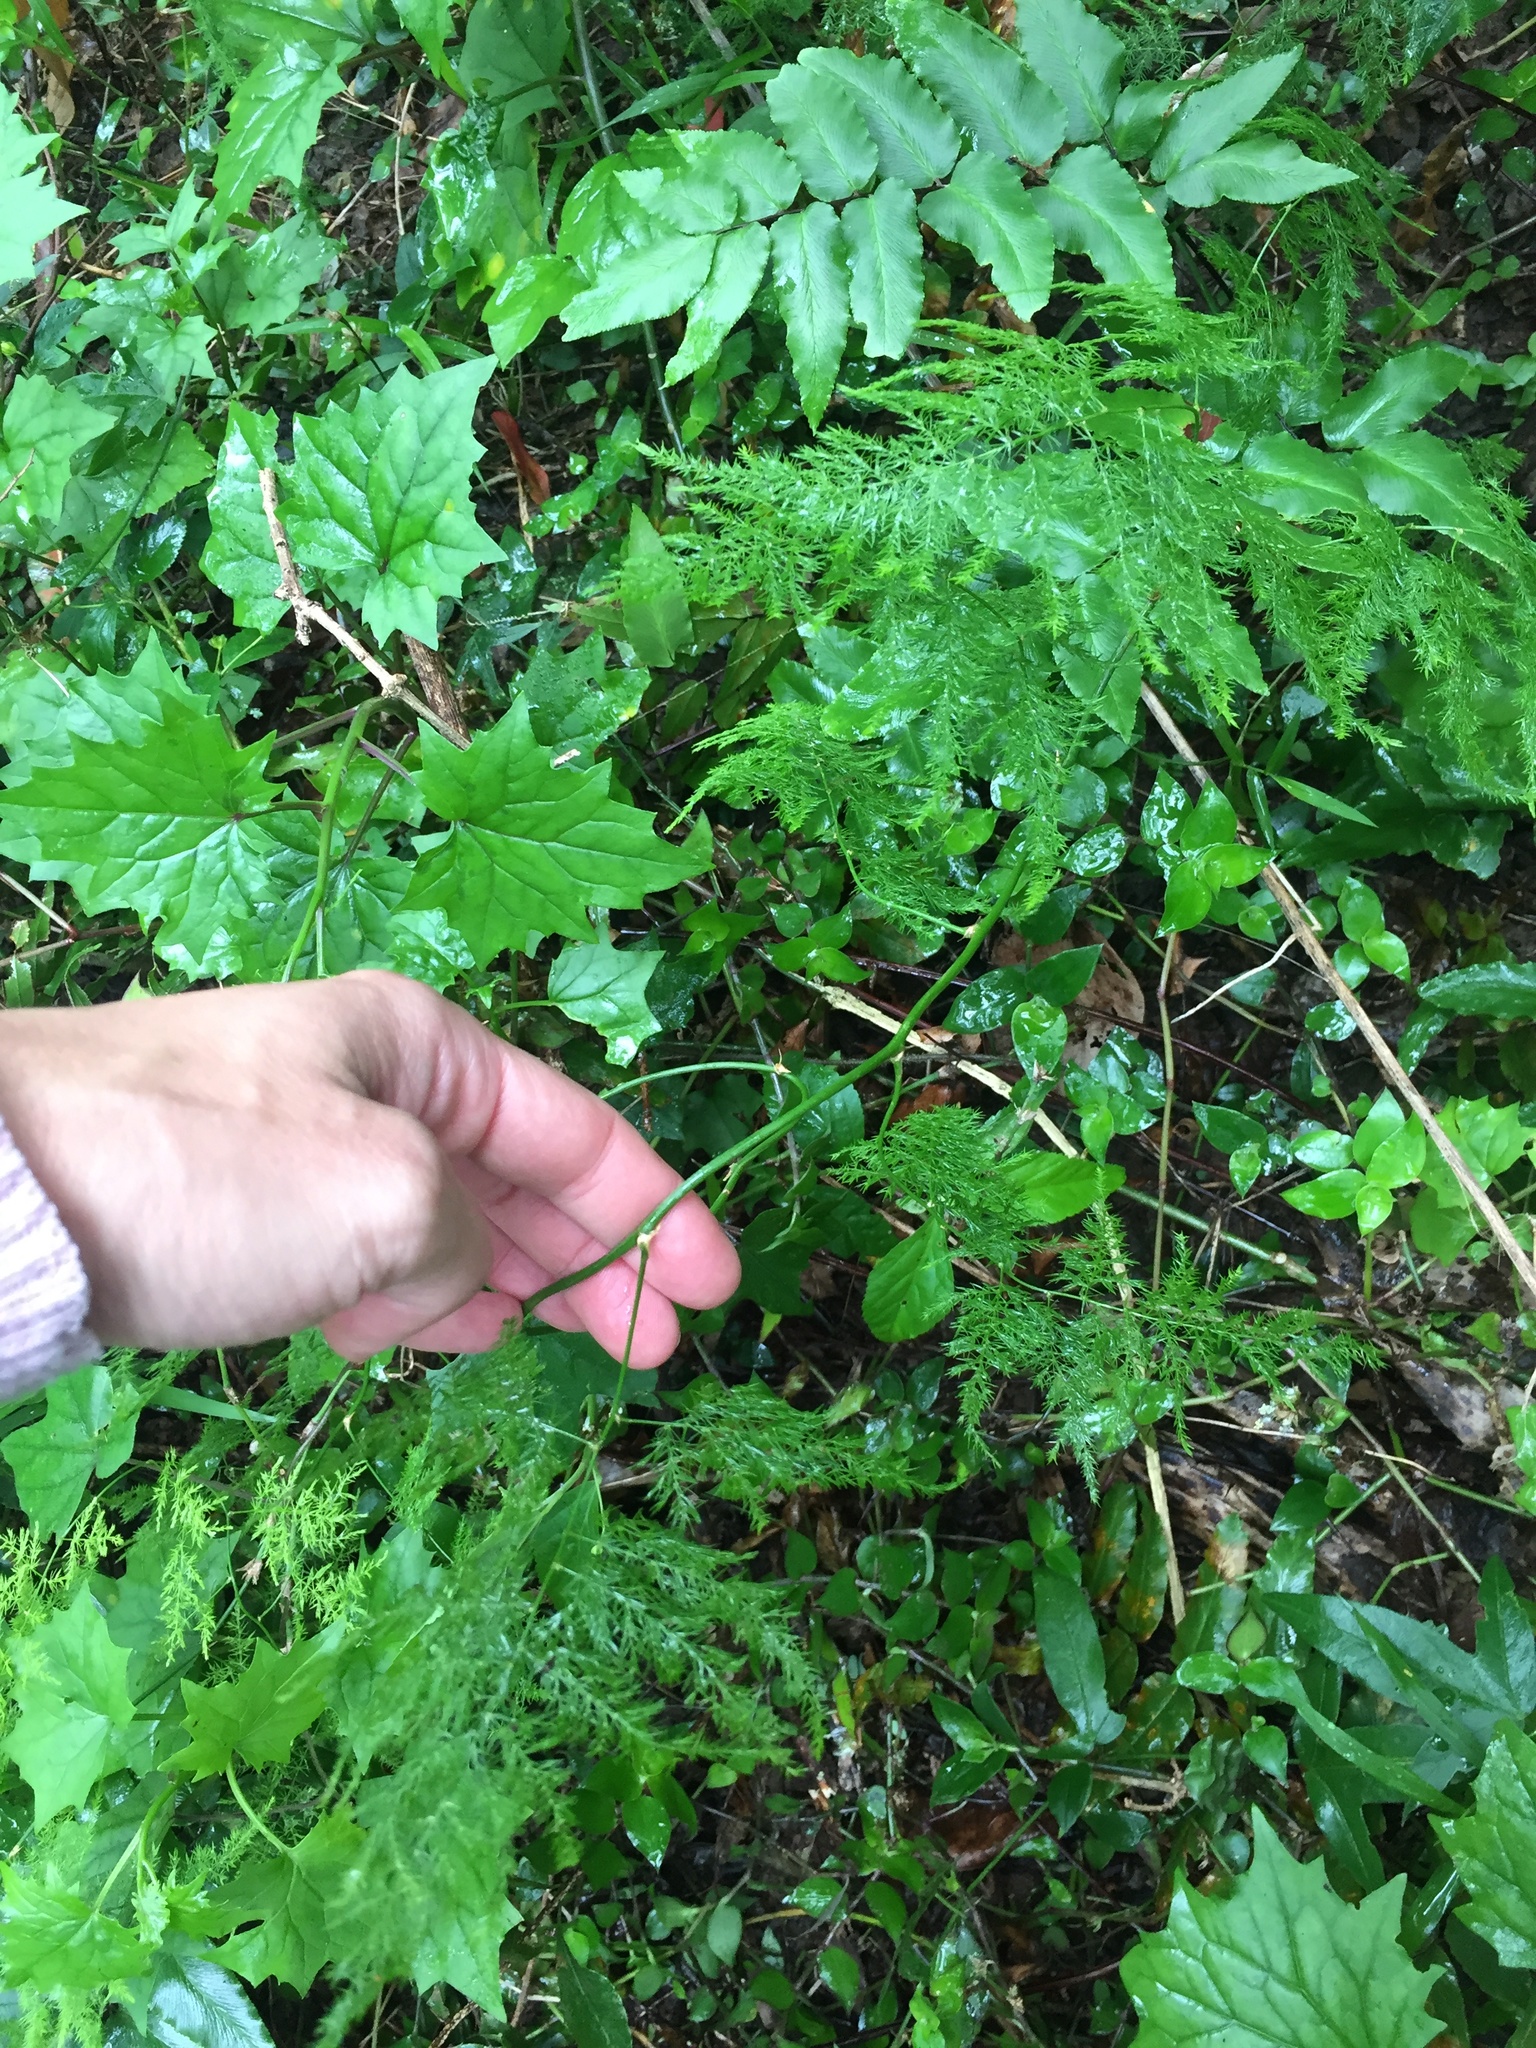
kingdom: Plantae
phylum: Tracheophyta
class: Liliopsida
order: Asparagales
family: Asparagaceae
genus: Asparagus
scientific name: Asparagus setaceus
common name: Common asparagus fern
